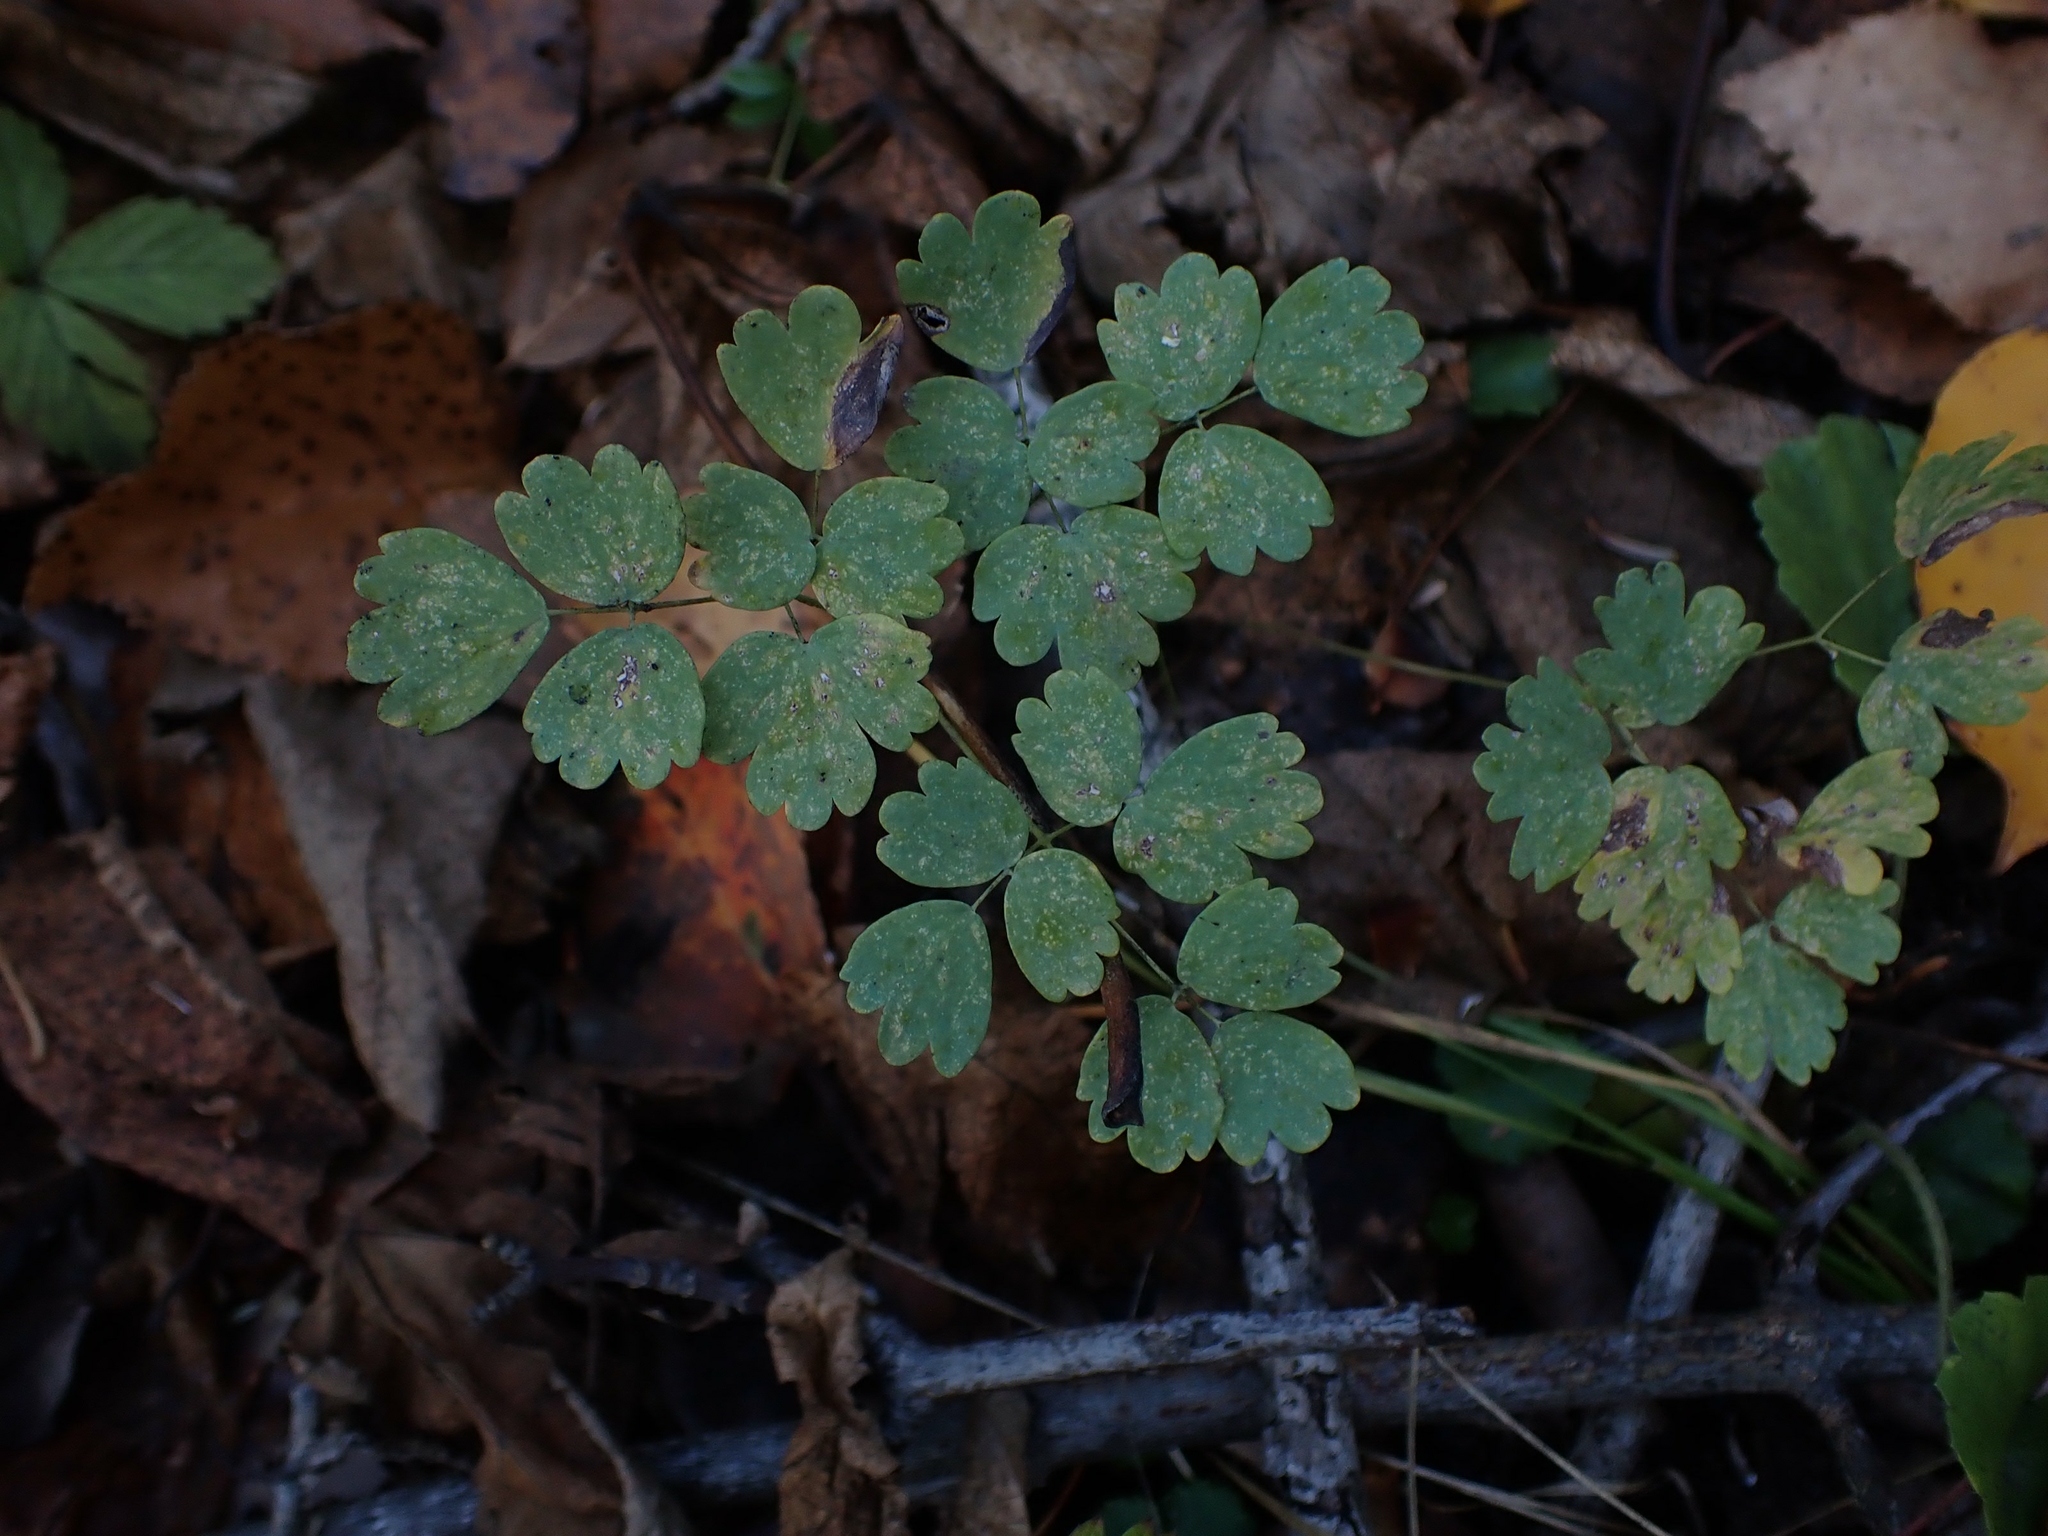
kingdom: Plantae
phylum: Tracheophyta
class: Magnoliopsida
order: Ranunculales
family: Ranunculaceae
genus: Thalictrum
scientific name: Thalictrum venulosum
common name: Early meadow-rue
